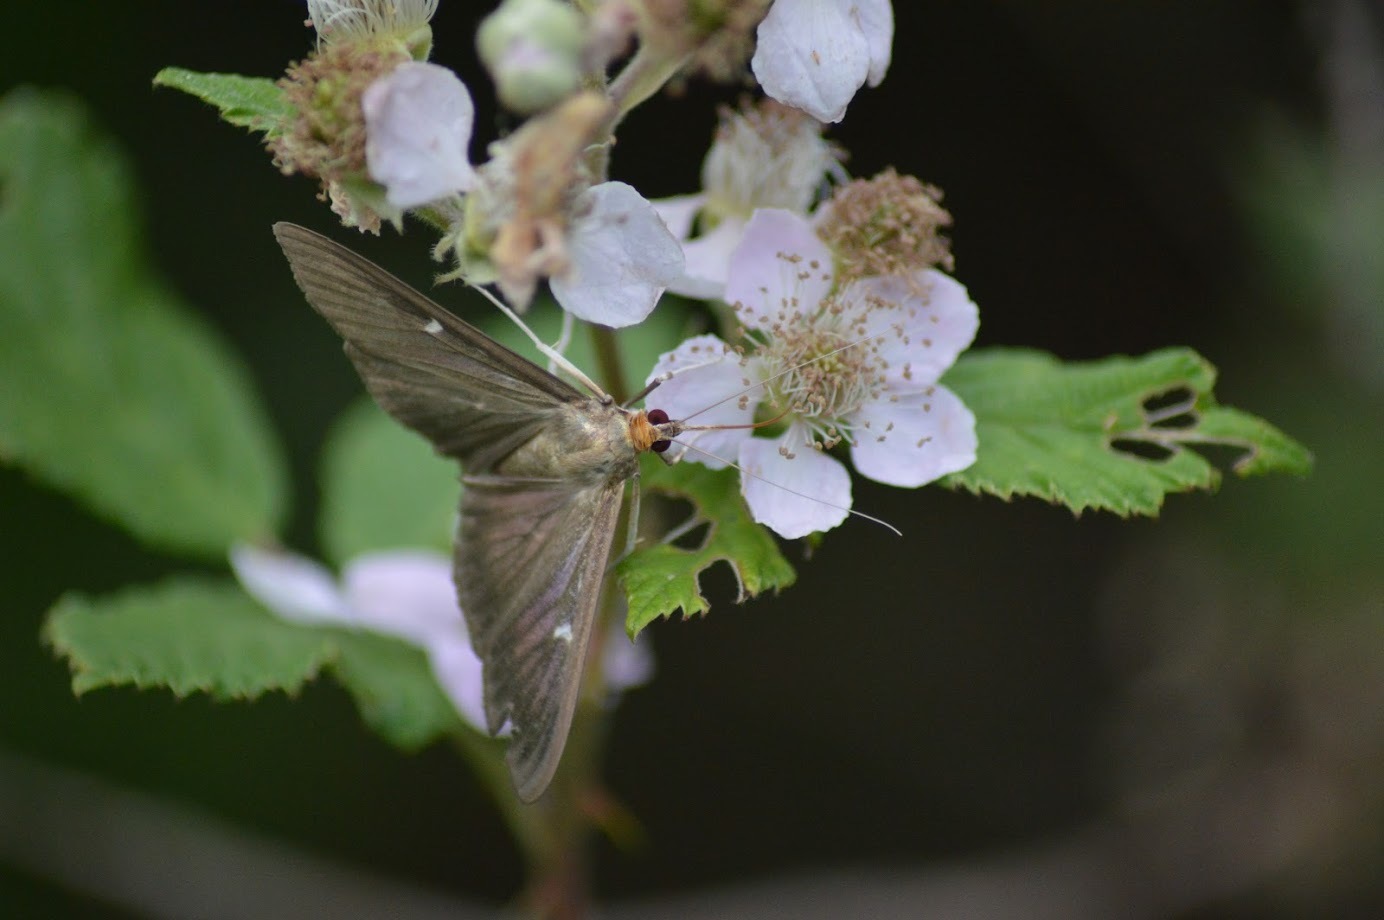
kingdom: Animalia
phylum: Arthropoda
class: Insecta
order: Lepidoptera
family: Crambidae
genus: Cydalima
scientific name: Cydalima perspectalis
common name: Box tree moth
